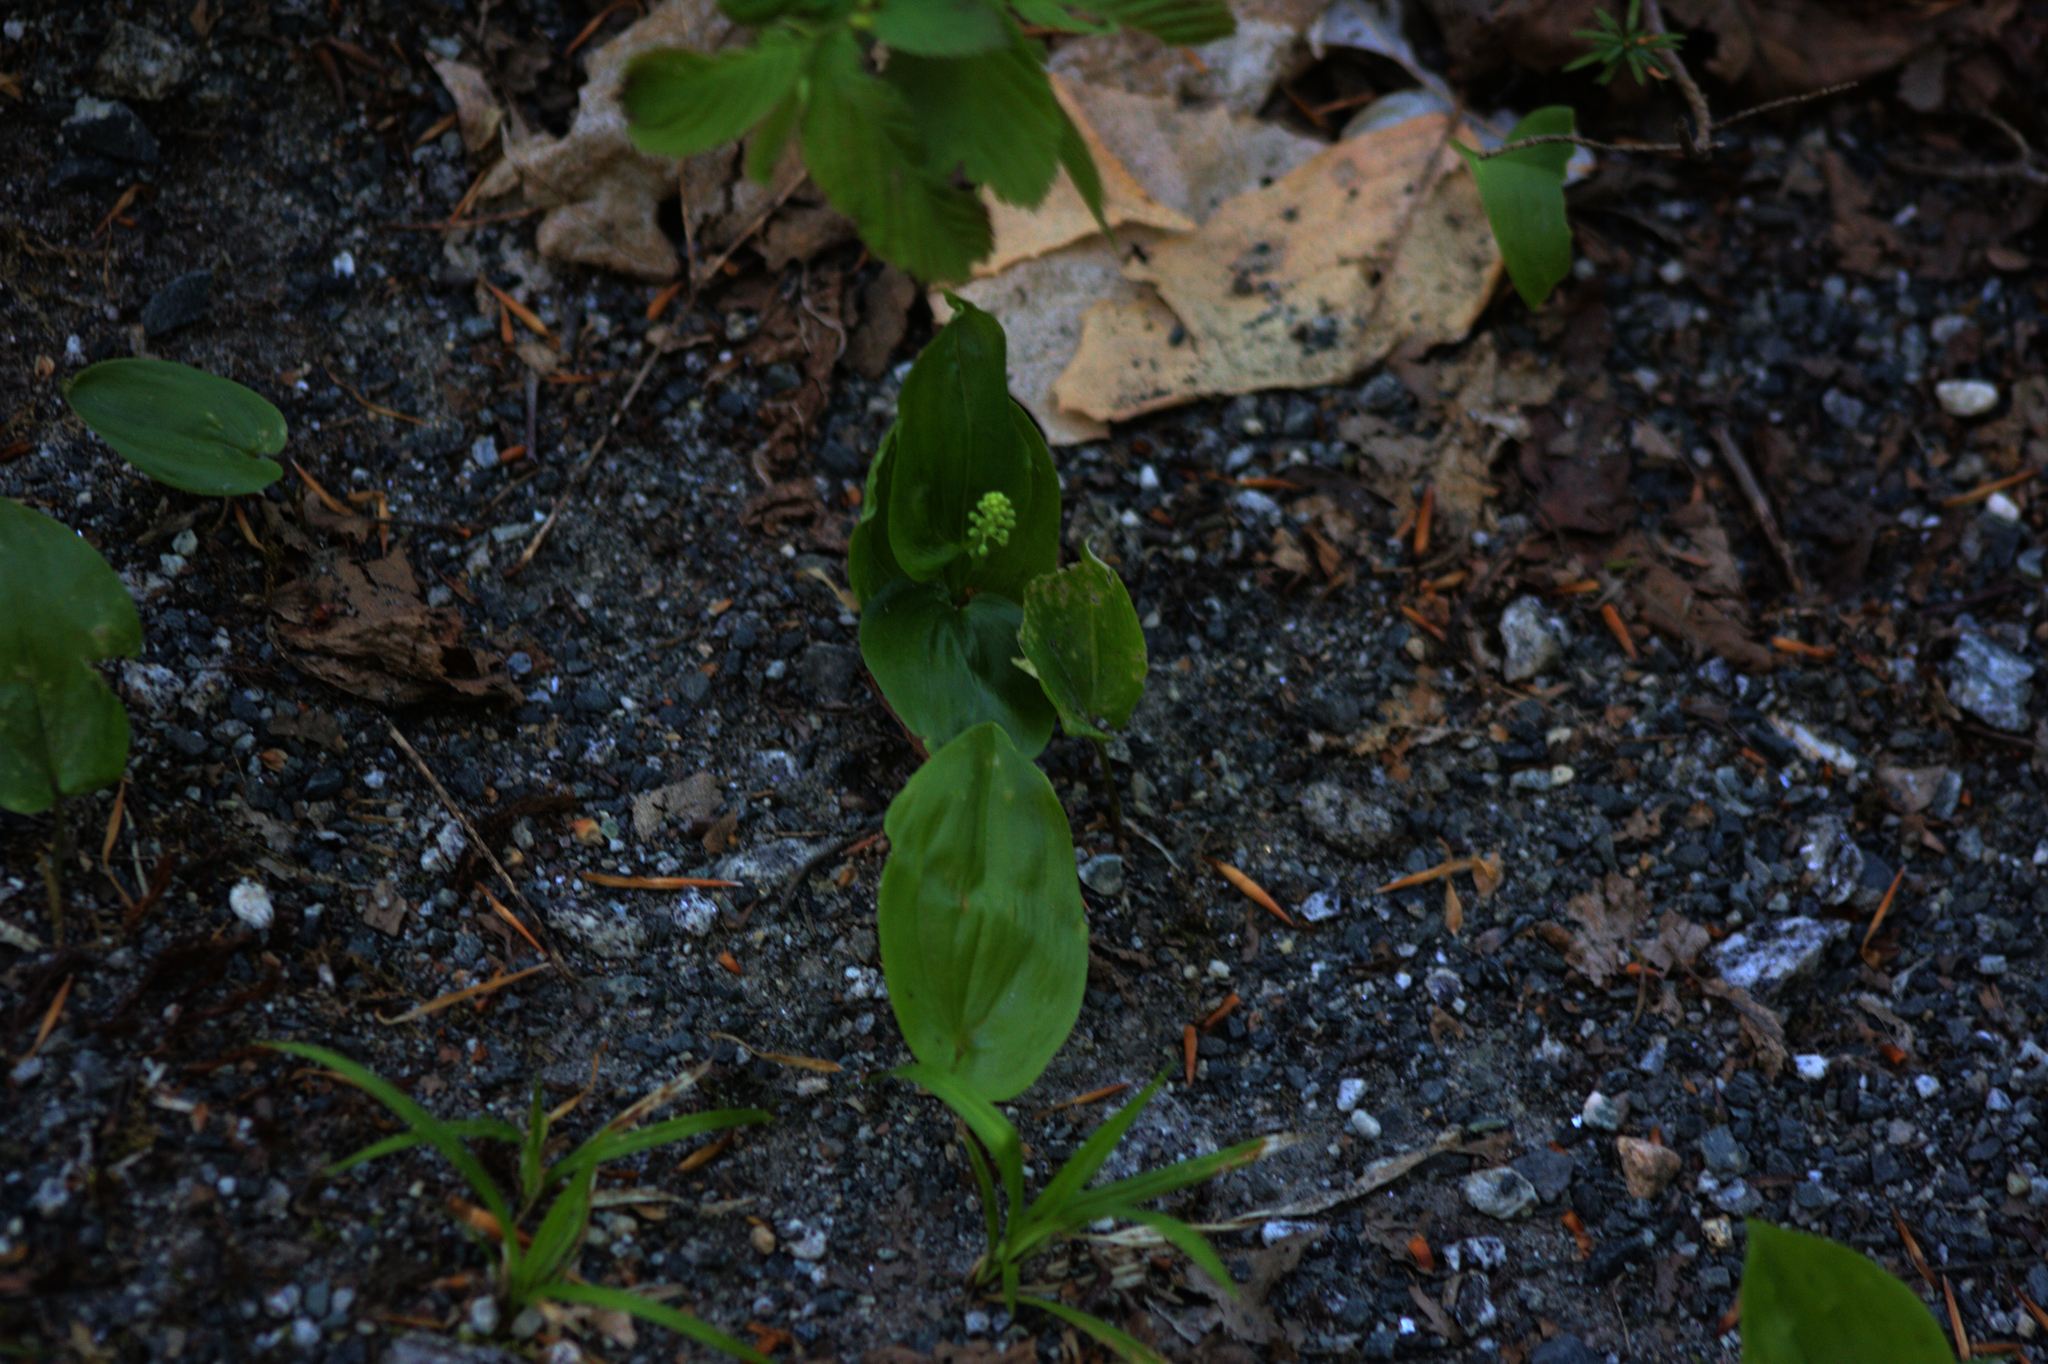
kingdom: Plantae
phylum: Tracheophyta
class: Liliopsida
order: Asparagales
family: Asparagaceae
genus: Maianthemum
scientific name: Maianthemum canadense
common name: False lily-of-the-valley
